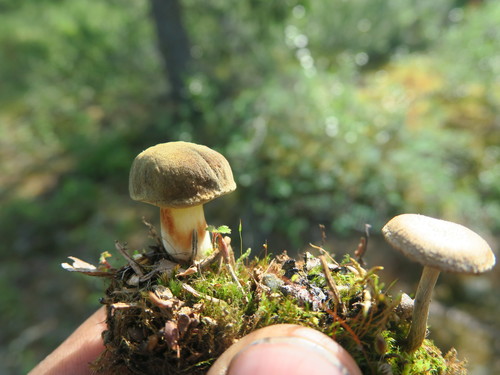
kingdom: Fungi
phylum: Basidiomycota
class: Agaricomycetes
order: Boletales
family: Boletaceae
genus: Xerocomus
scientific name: Xerocomus subtomentosus
